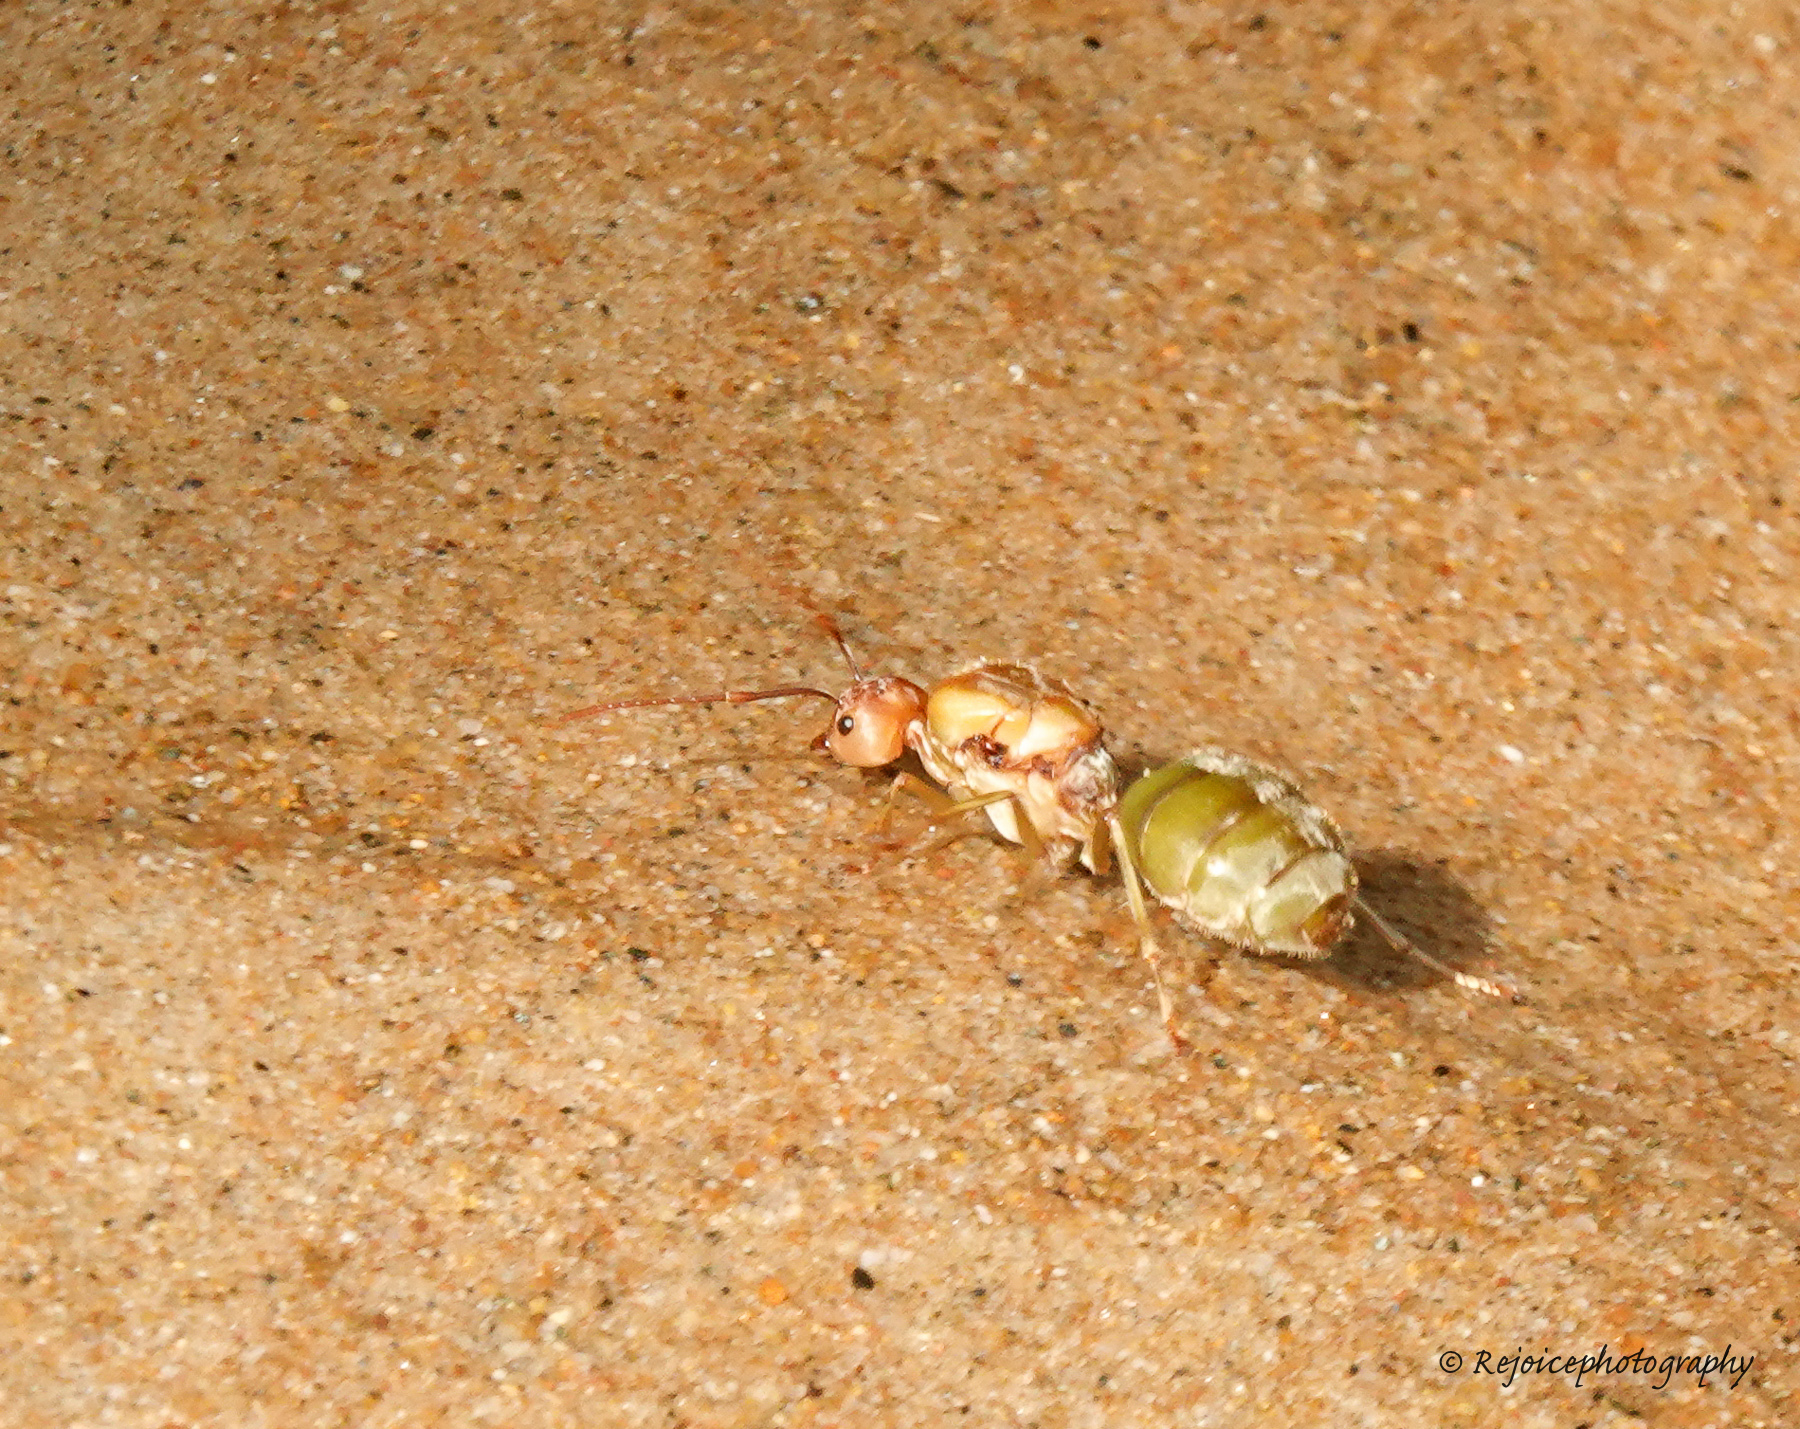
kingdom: Animalia
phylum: Arthropoda
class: Insecta
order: Hymenoptera
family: Formicidae
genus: Oecophylla
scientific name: Oecophylla smaragdina
